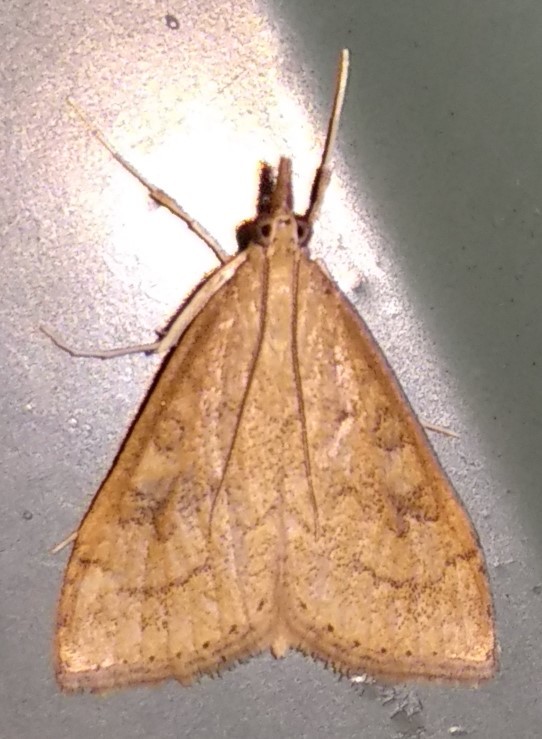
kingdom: Animalia
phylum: Arthropoda
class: Insecta
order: Lepidoptera
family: Crambidae
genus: Udea
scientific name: Udea rubigalis
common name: Celery leaftier moth
